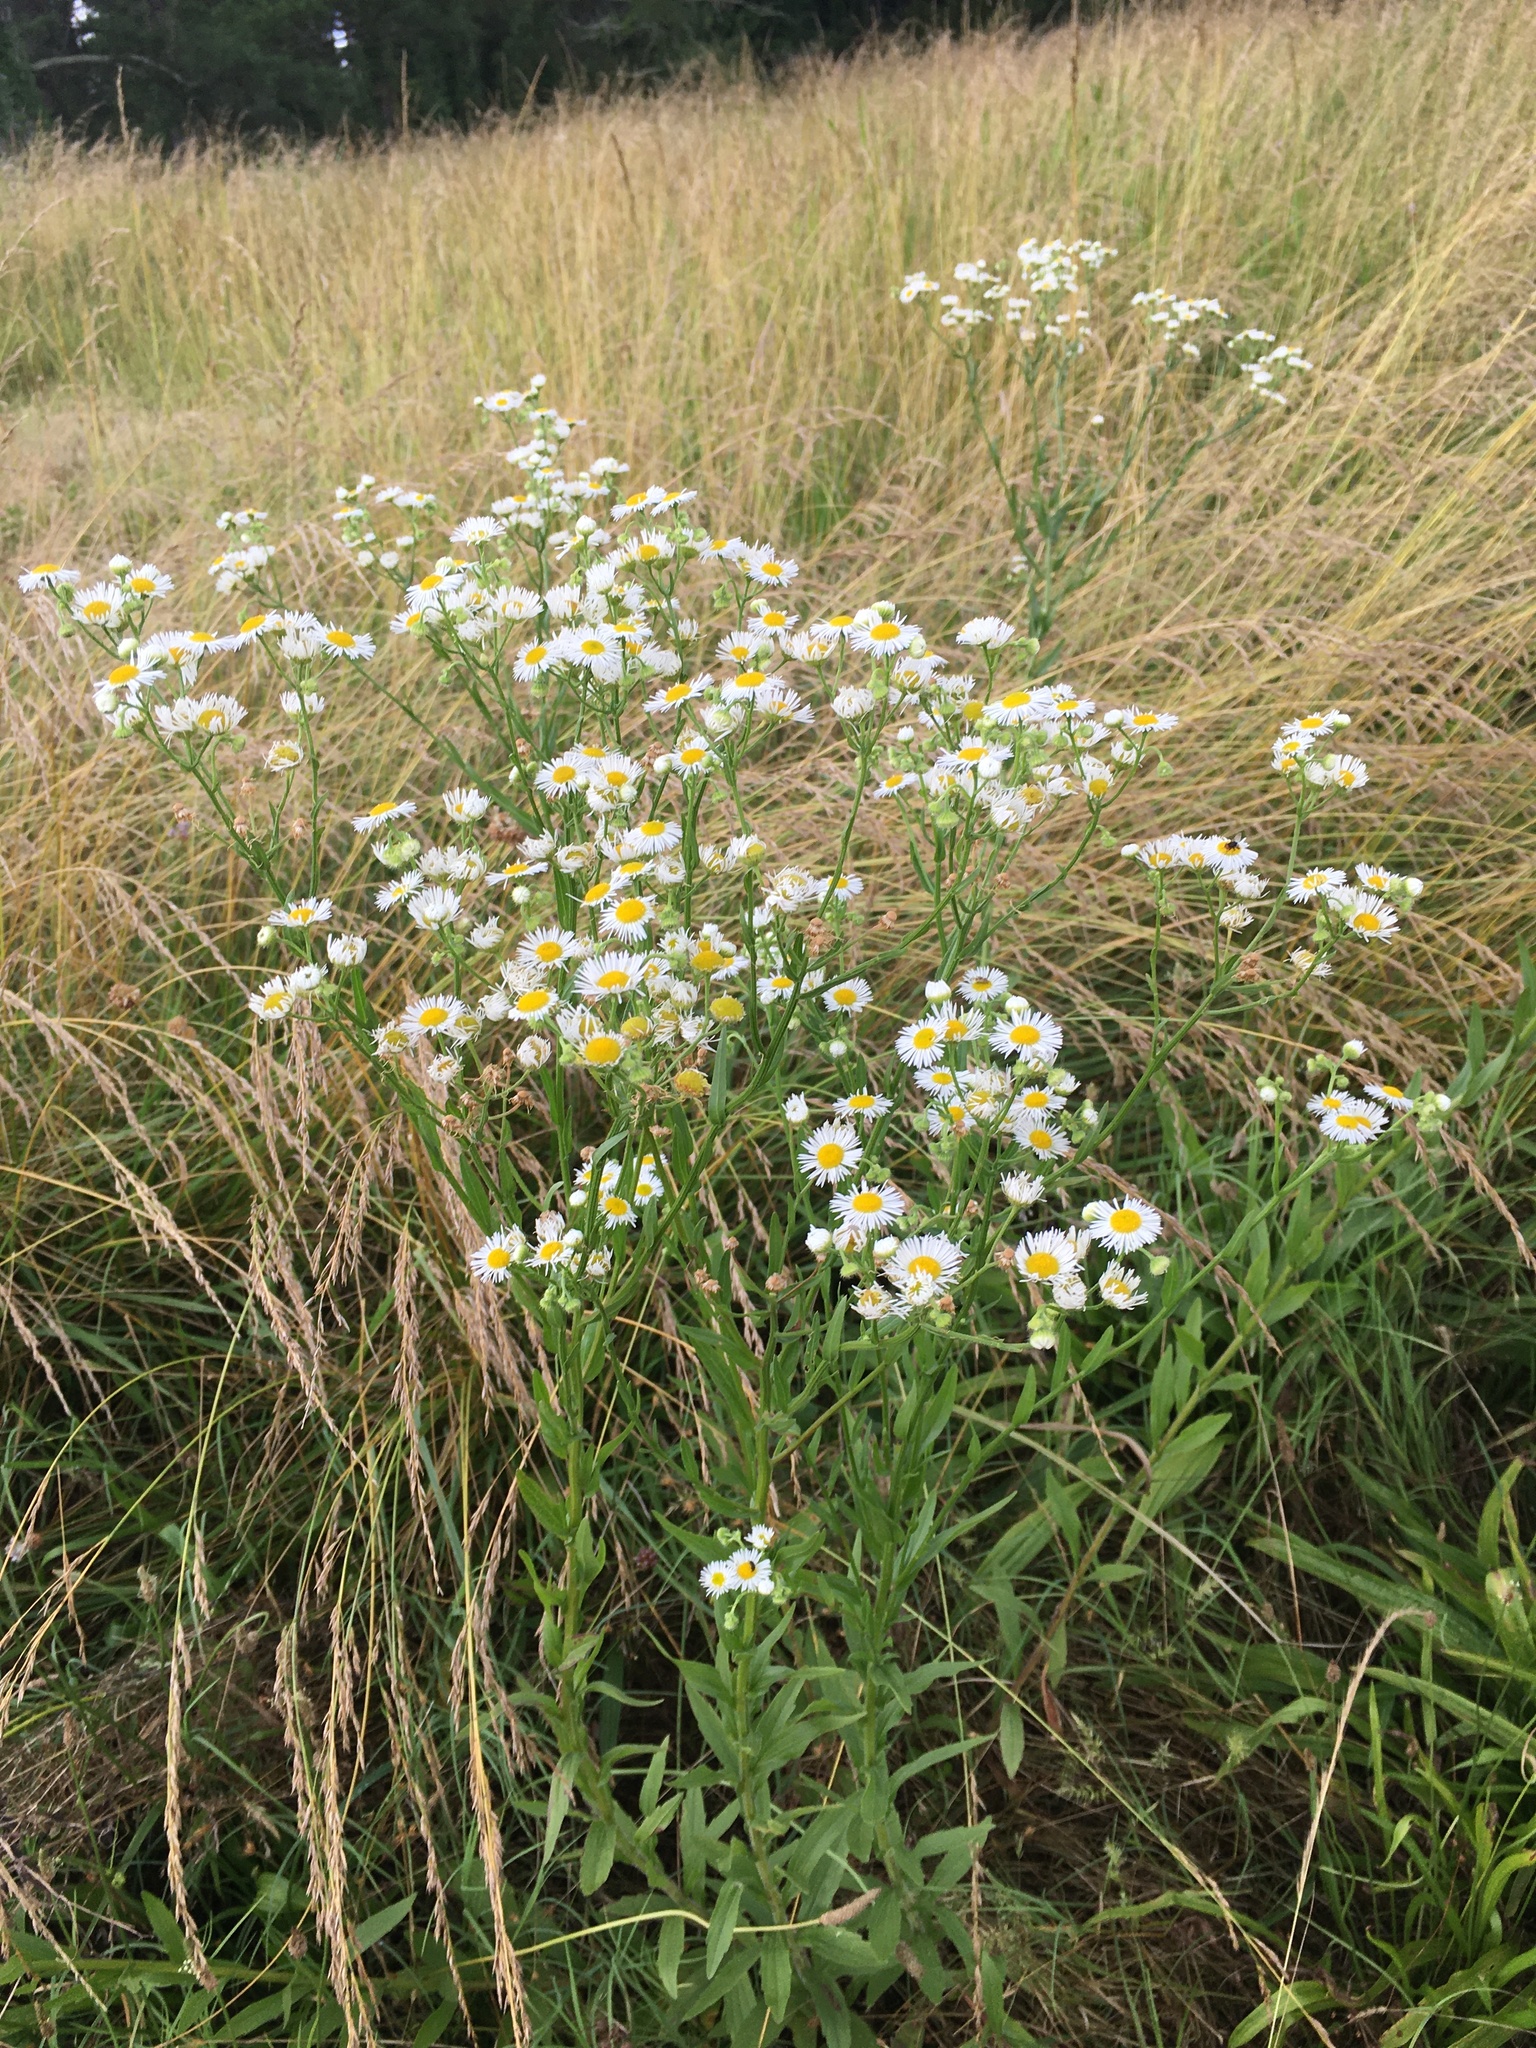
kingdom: Plantae
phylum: Tracheophyta
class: Magnoliopsida
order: Asterales
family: Asteraceae
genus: Erigeron
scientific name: Erigeron annuus
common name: Tall fleabane
